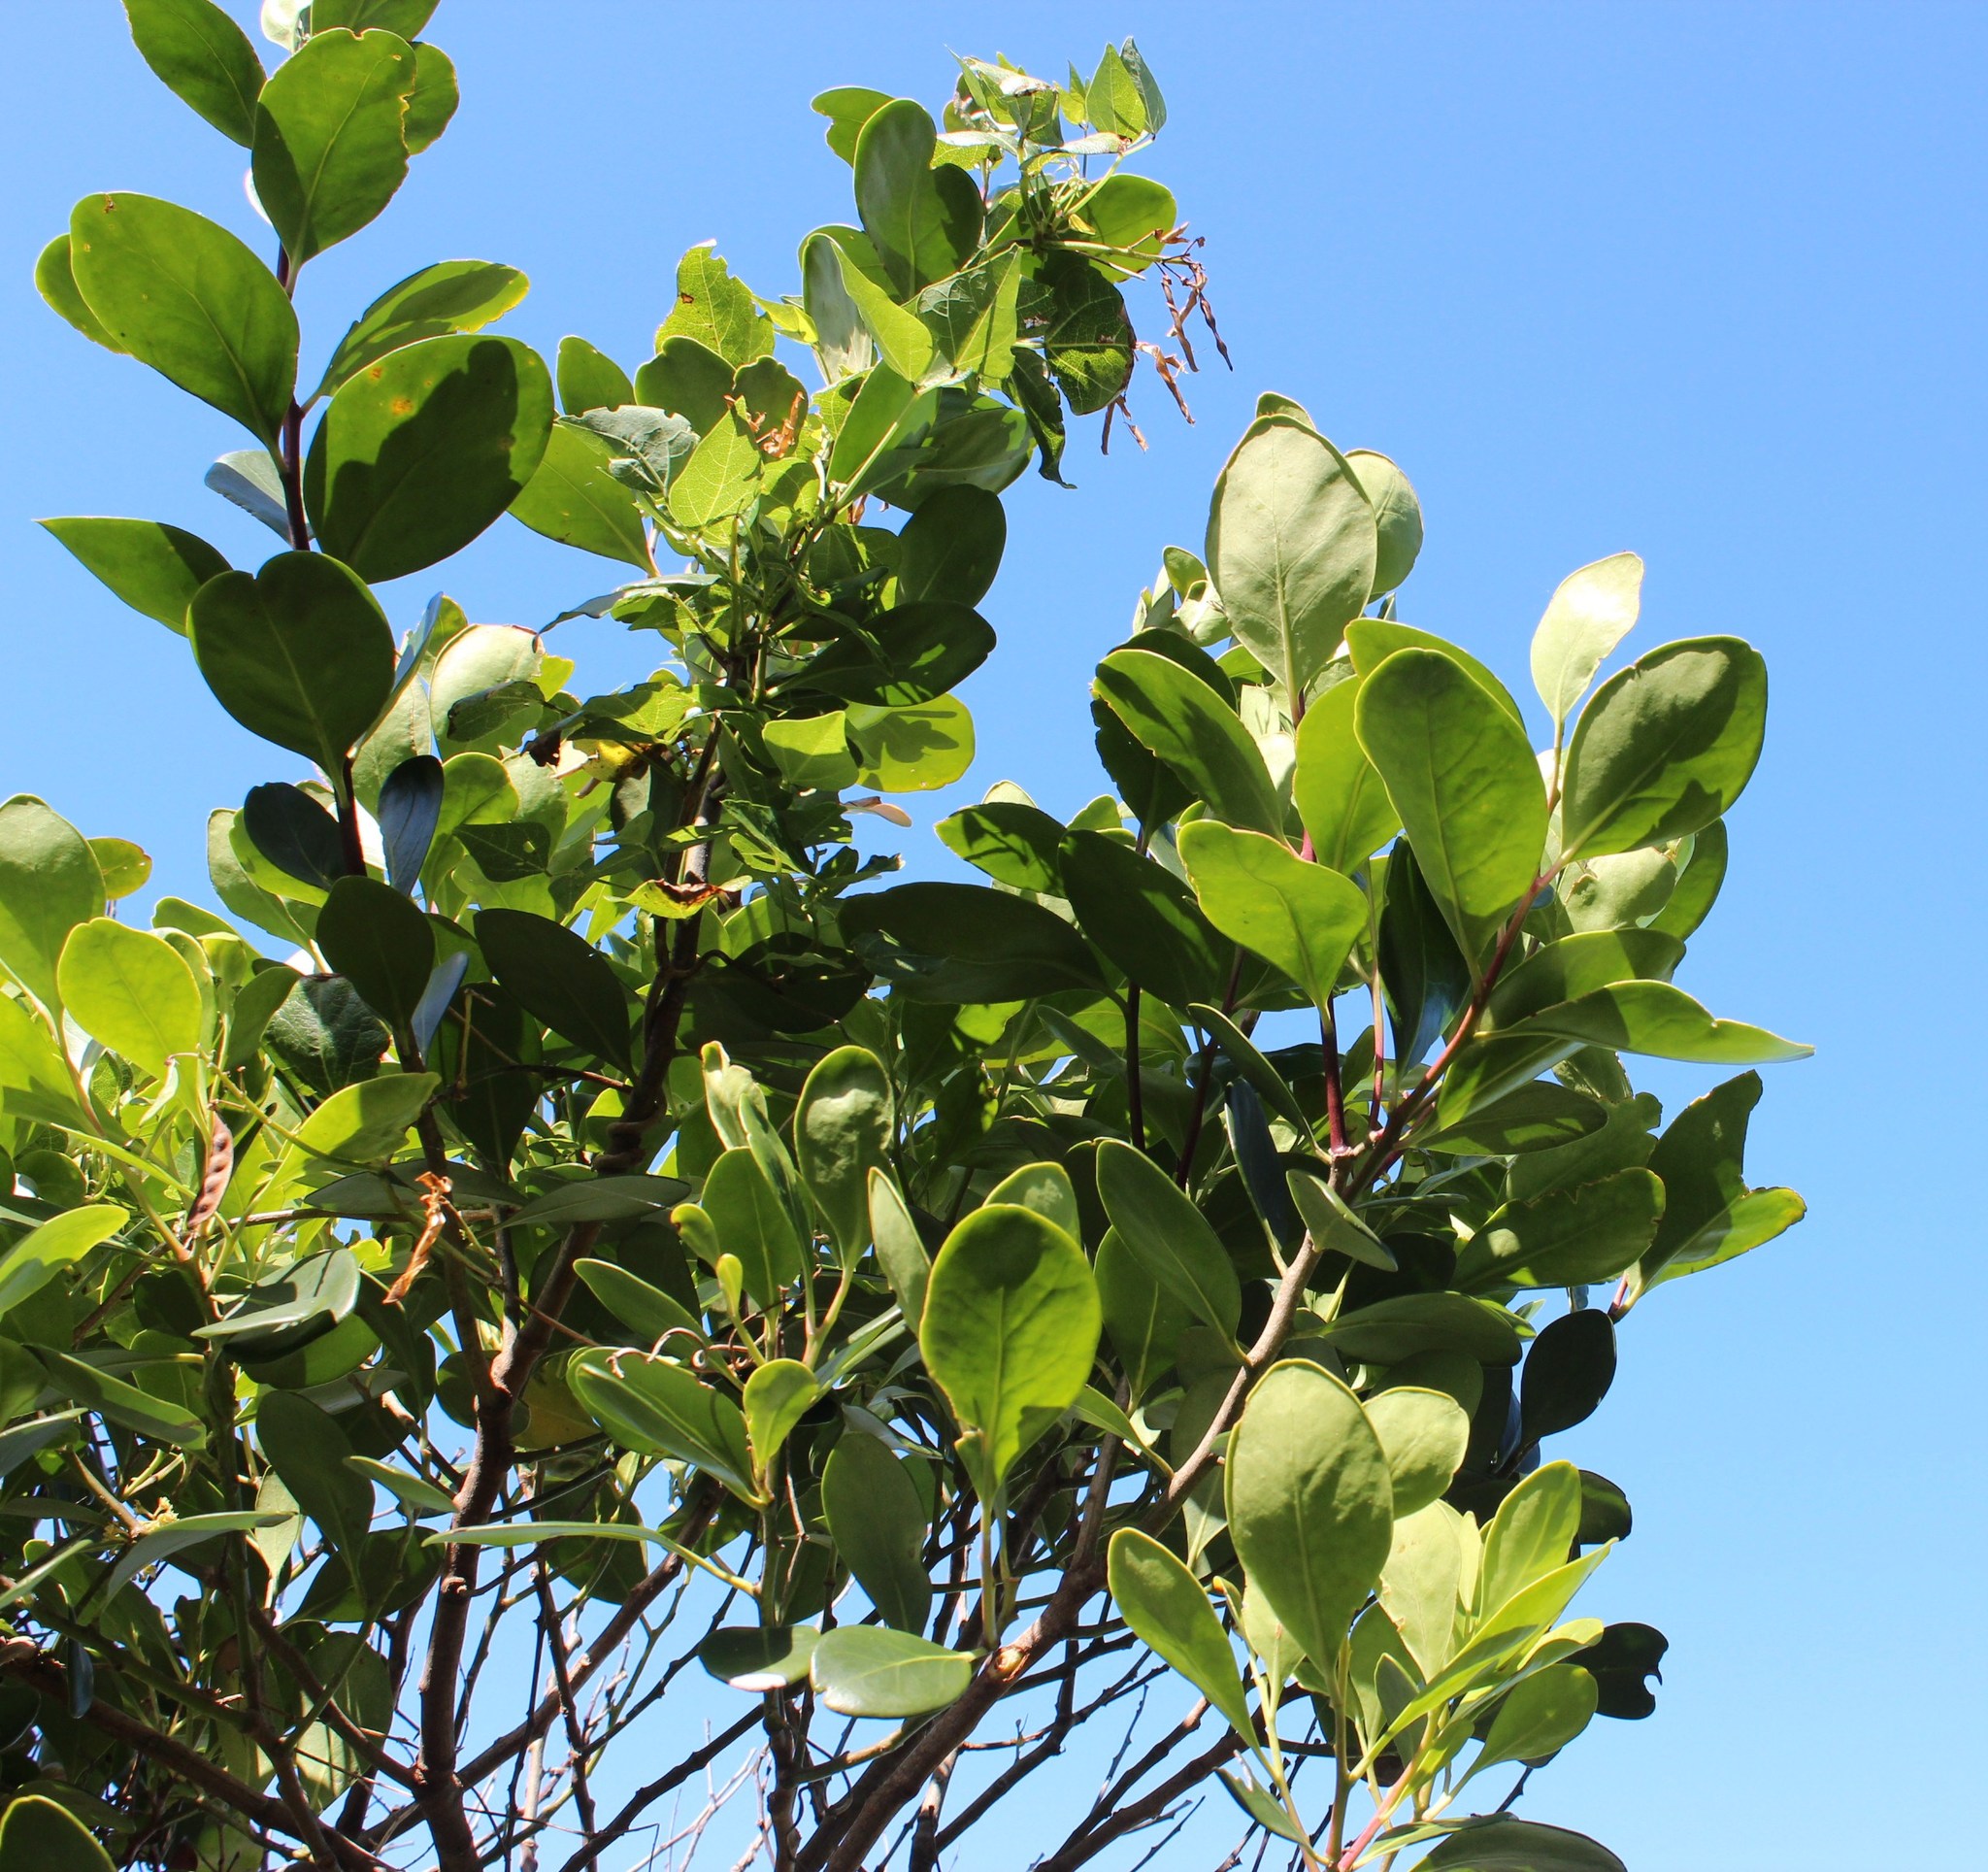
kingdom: Plantae
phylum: Tracheophyta
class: Magnoliopsida
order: Celastrales
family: Celastraceae
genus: Pterocelastrus
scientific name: Pterocelastrus tricuspidatus
